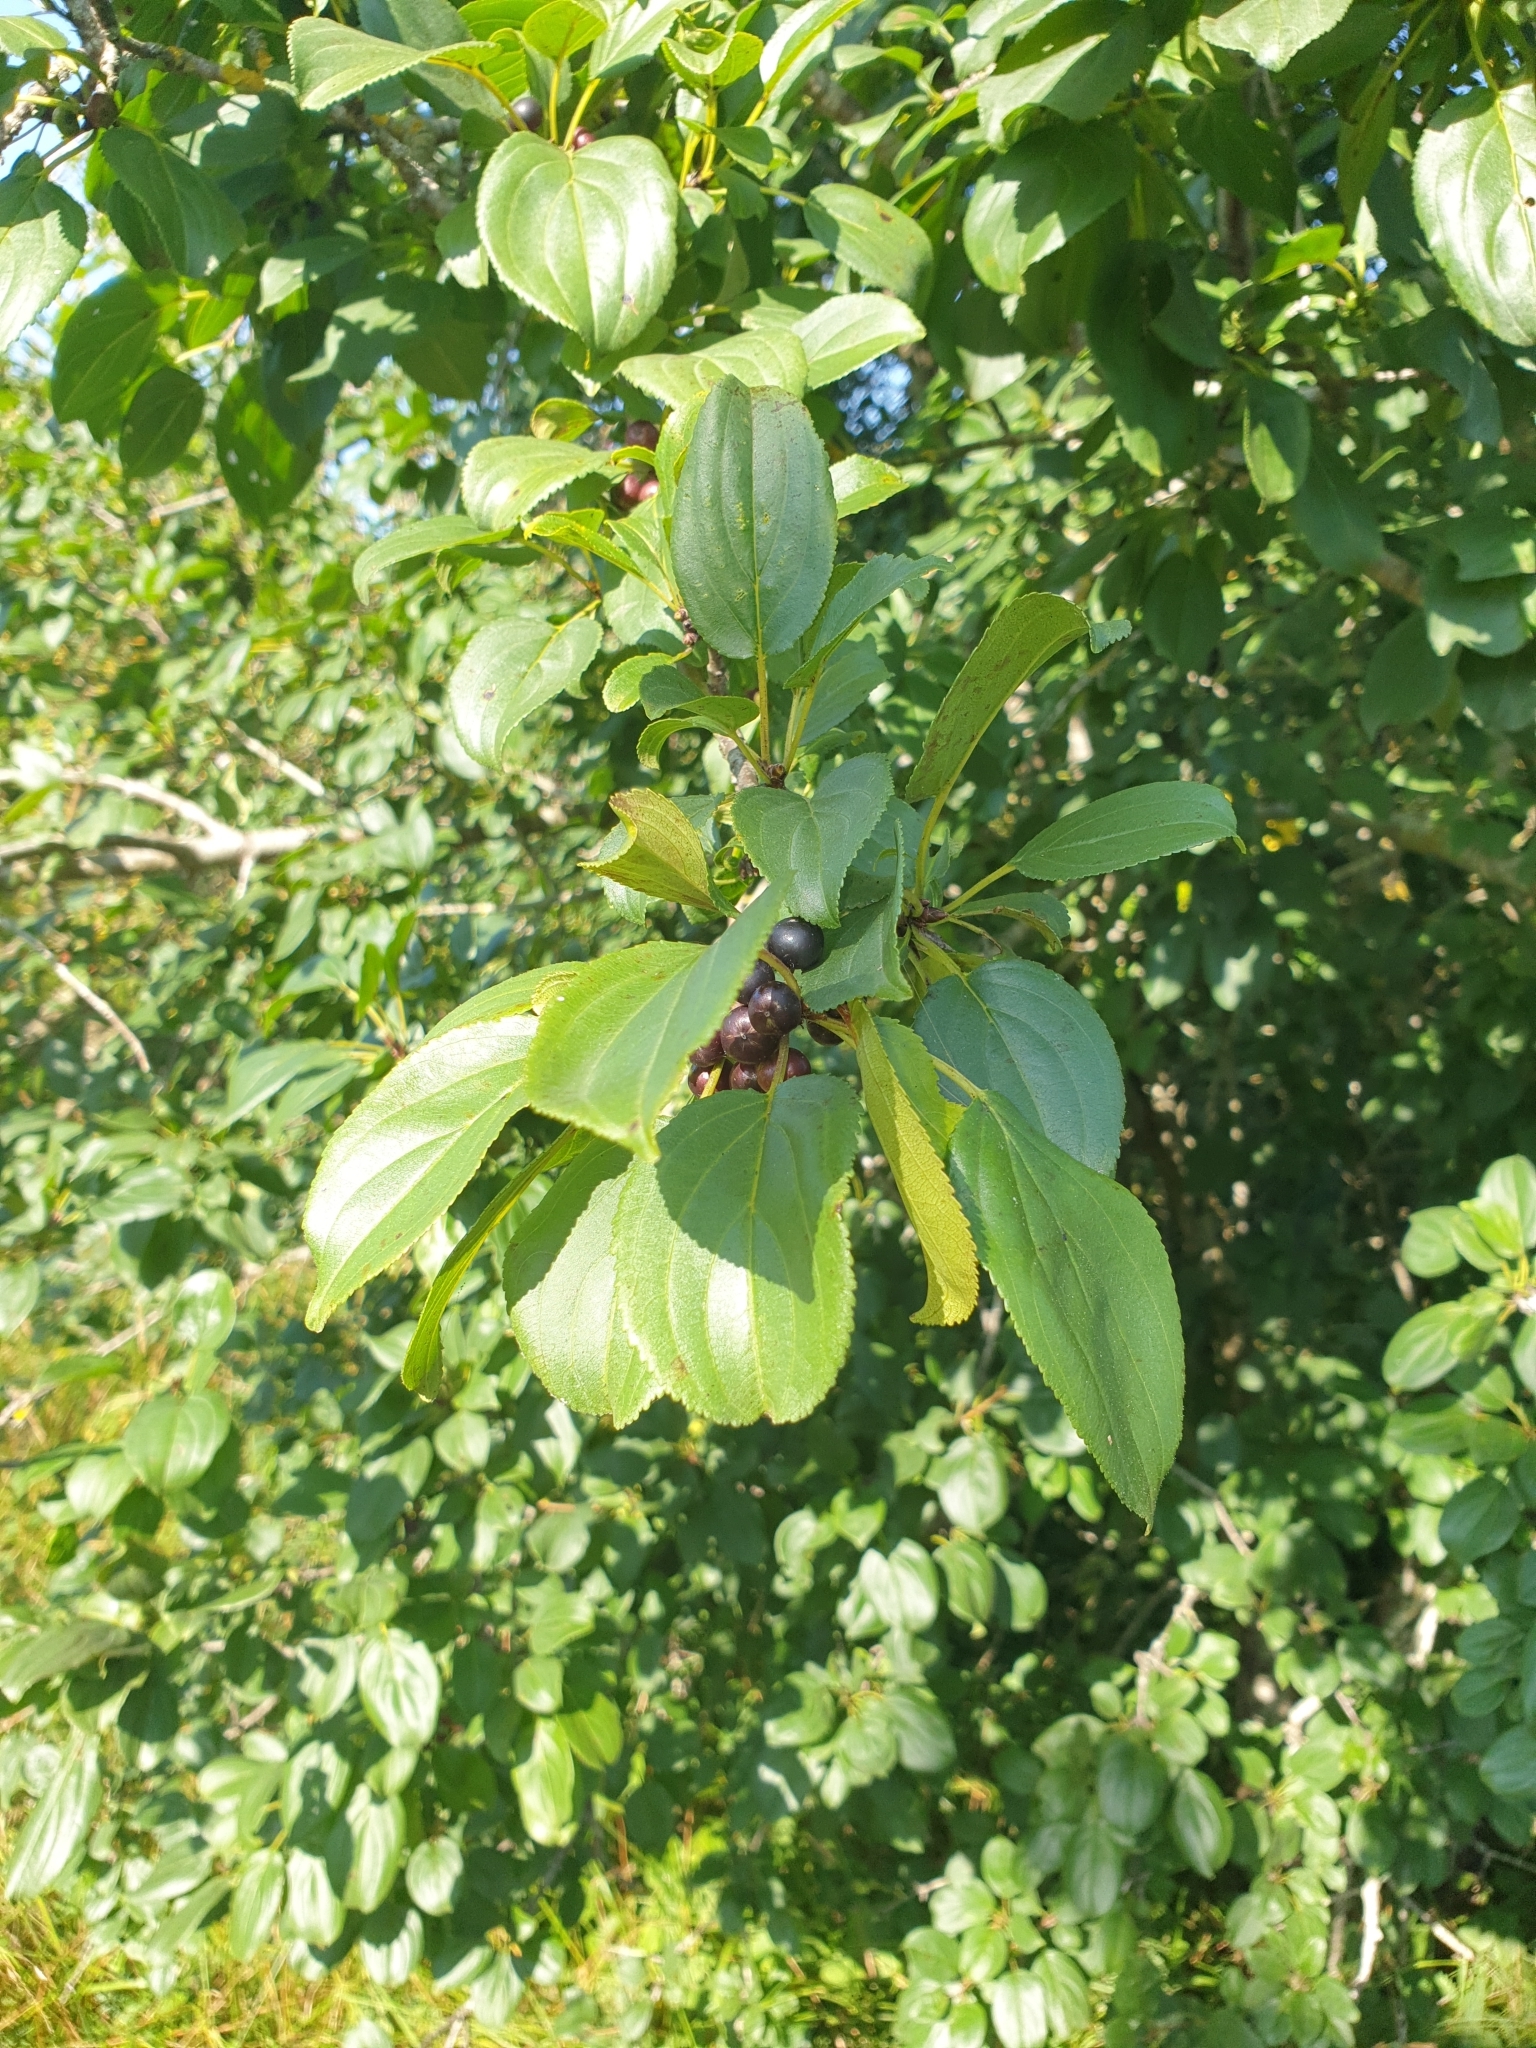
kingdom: Plantae
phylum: Tracheophyta
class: Magnoliopsida
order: Rosales
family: Rhamnaceae
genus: Rhamnus
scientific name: Rhamnus cathartica
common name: Common buckthorn
